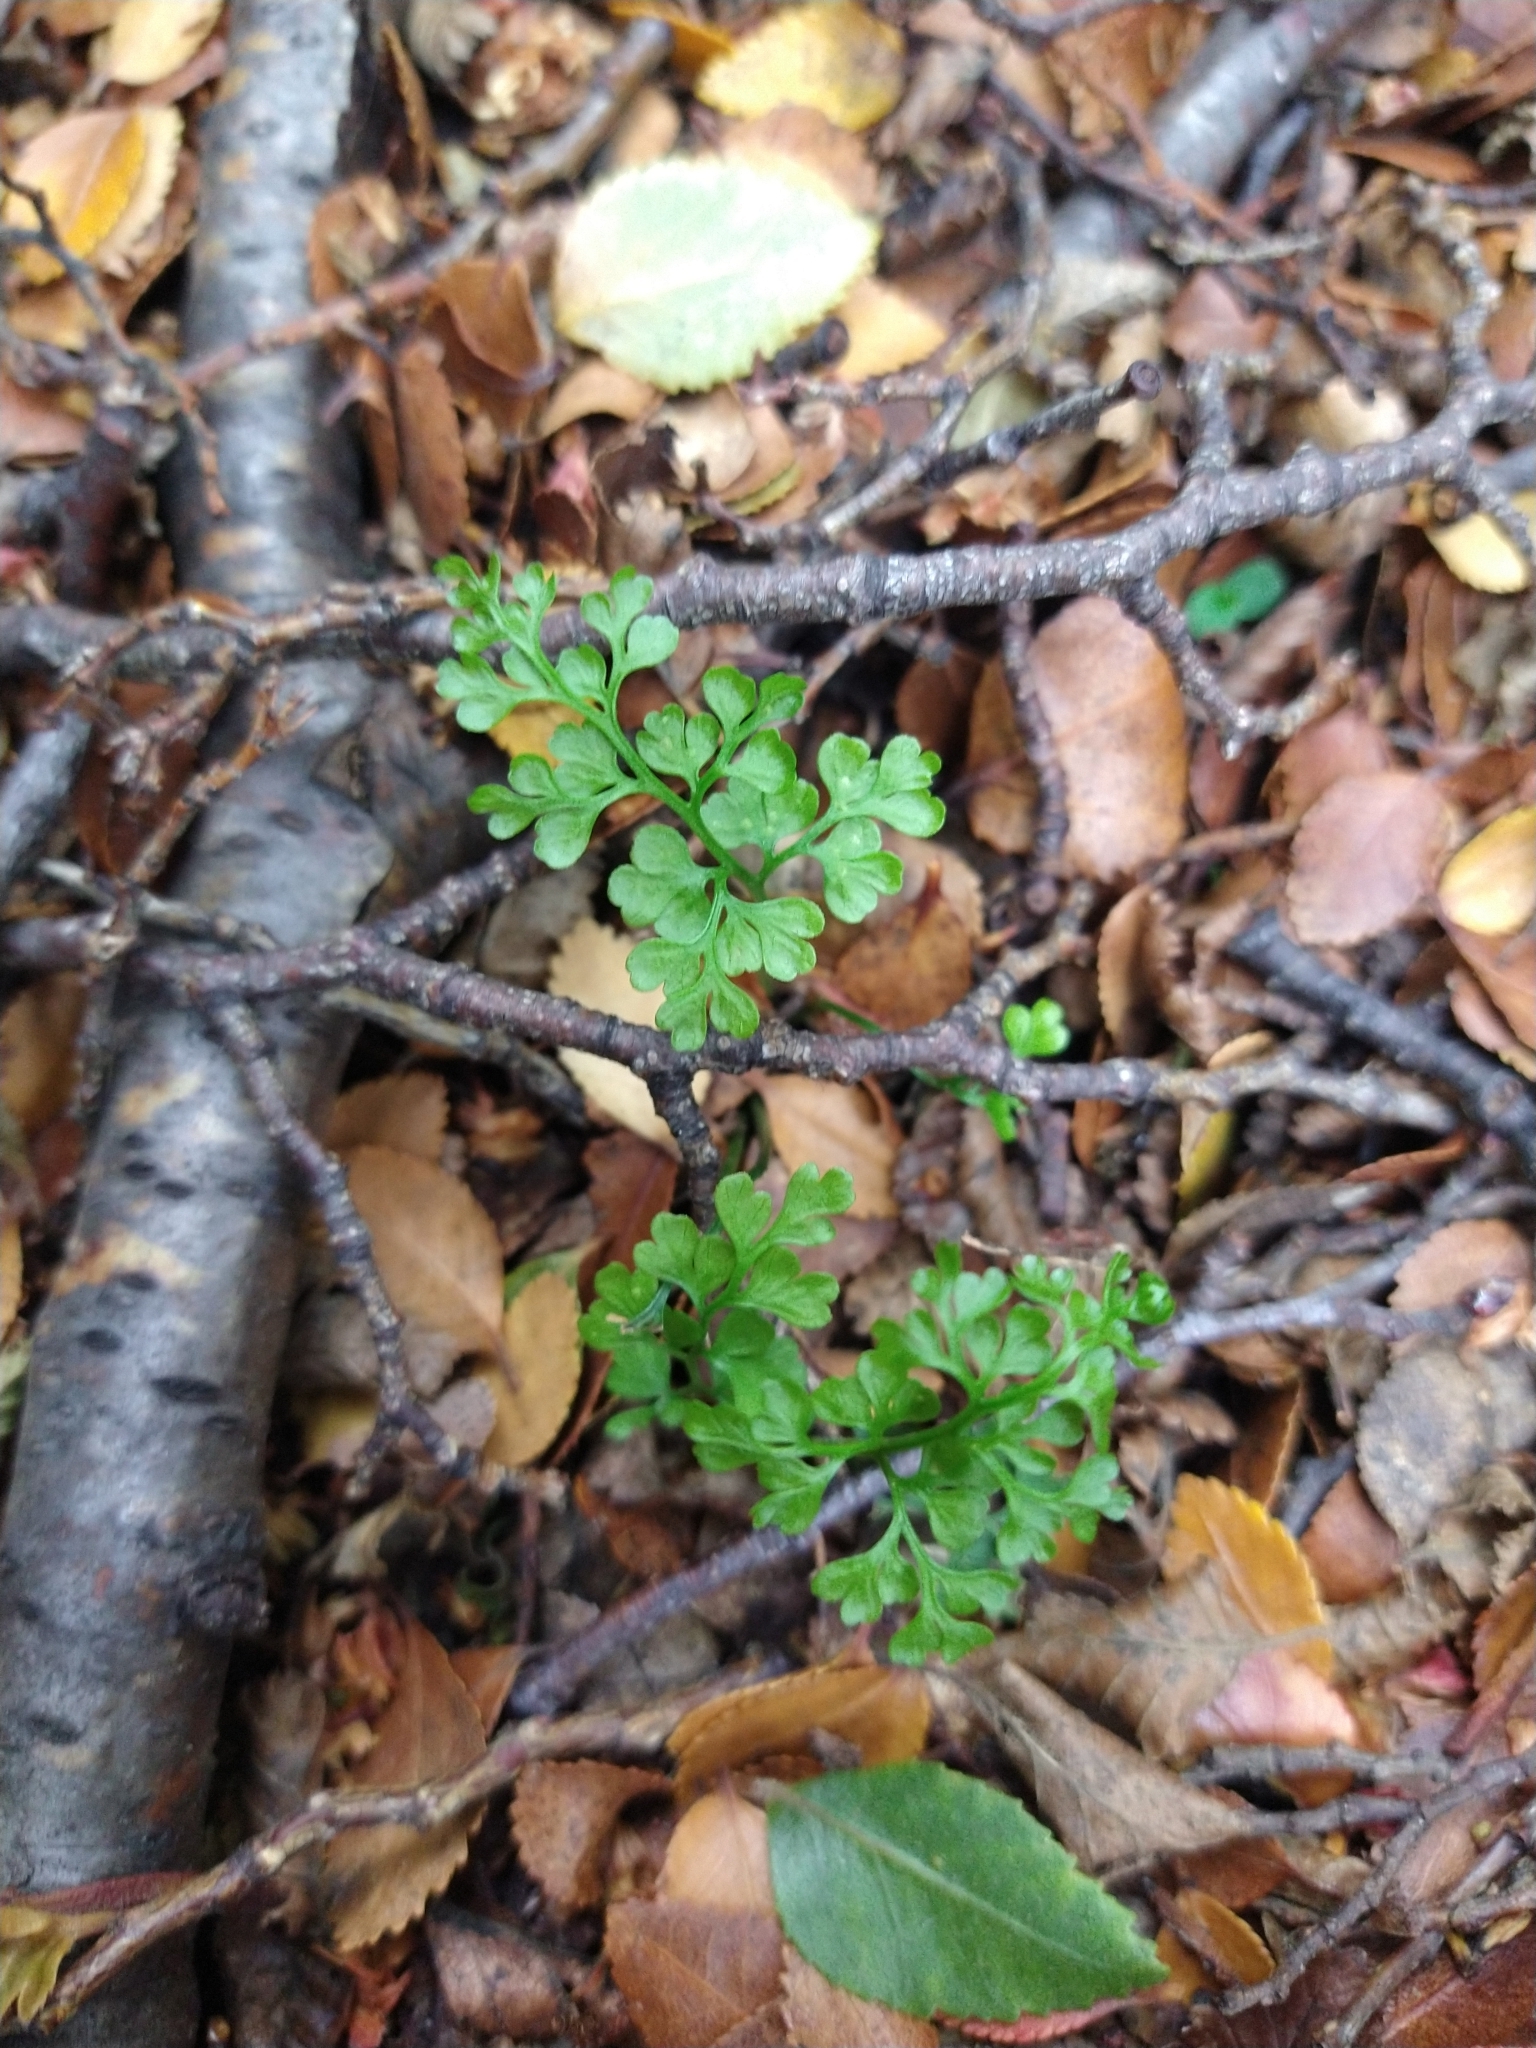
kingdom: Plantae
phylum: Tracheophyta
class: Polypodiopsida
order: Polypodiales
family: Aspleniaceae
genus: Asplenium
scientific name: Asplenium dareoides
